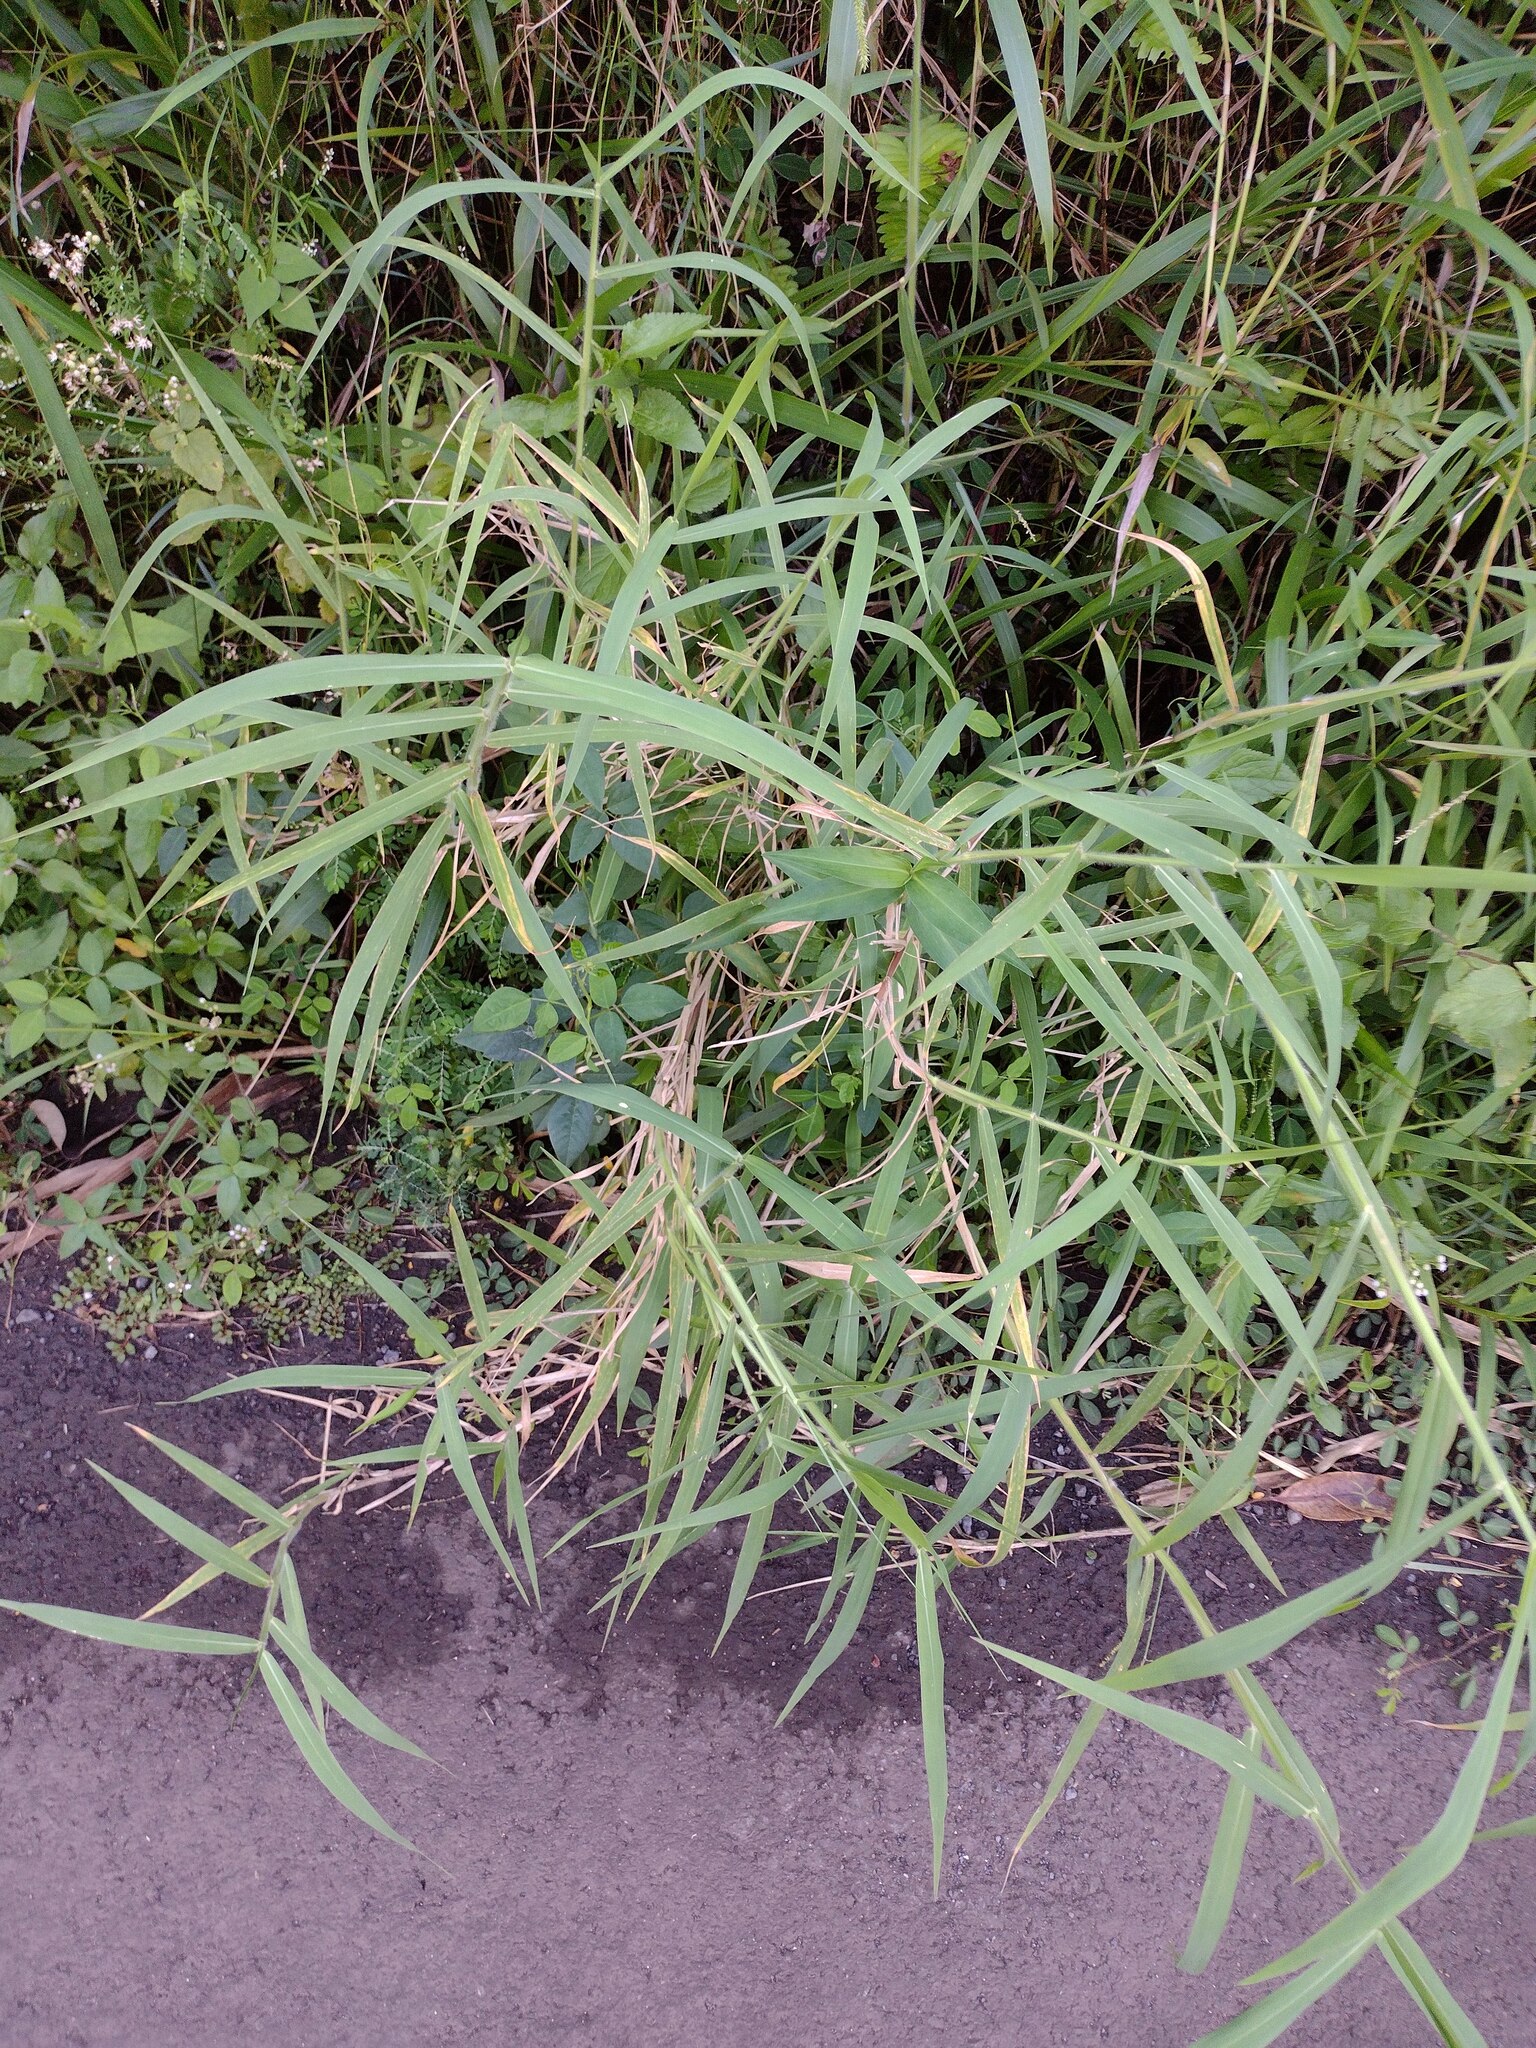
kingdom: Plantae
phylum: Tracheophyta
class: Liliopsida
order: Poales
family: Poaceae
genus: Urochloa
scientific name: Urochloa mutica
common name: Para grass
